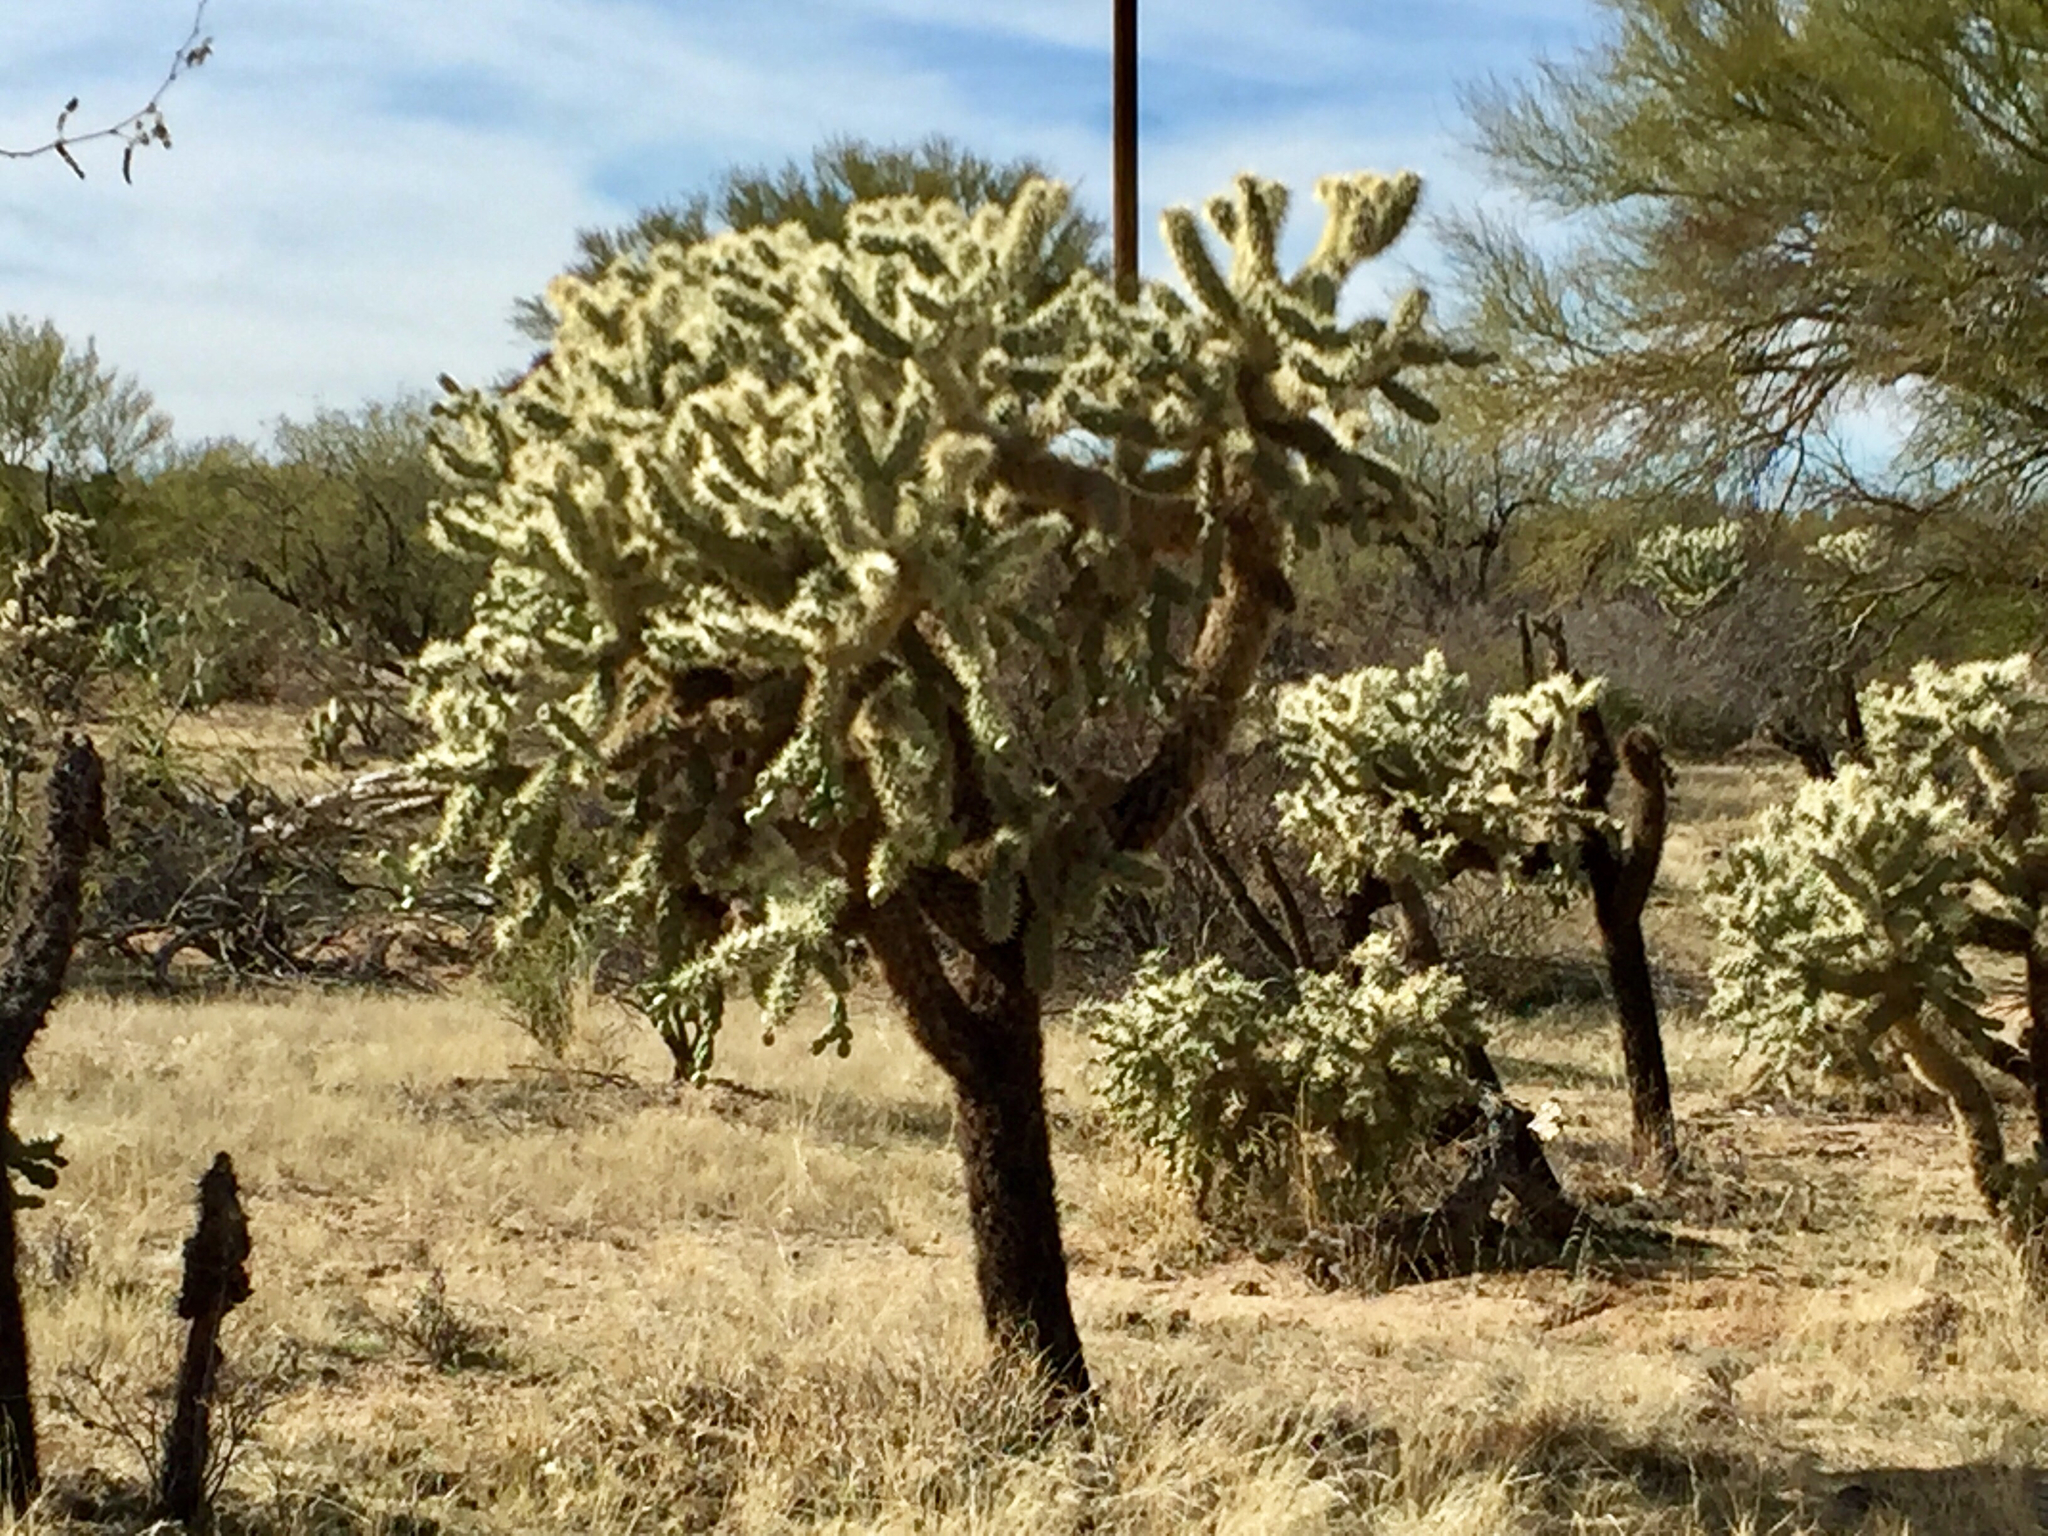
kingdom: Plantae
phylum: Tracheophyta
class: Magnoliopsida
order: Caryophyllales
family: Cactaceae
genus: Cylindropuntia
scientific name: Cylindropuntia fulgida
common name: Jumping cholla
